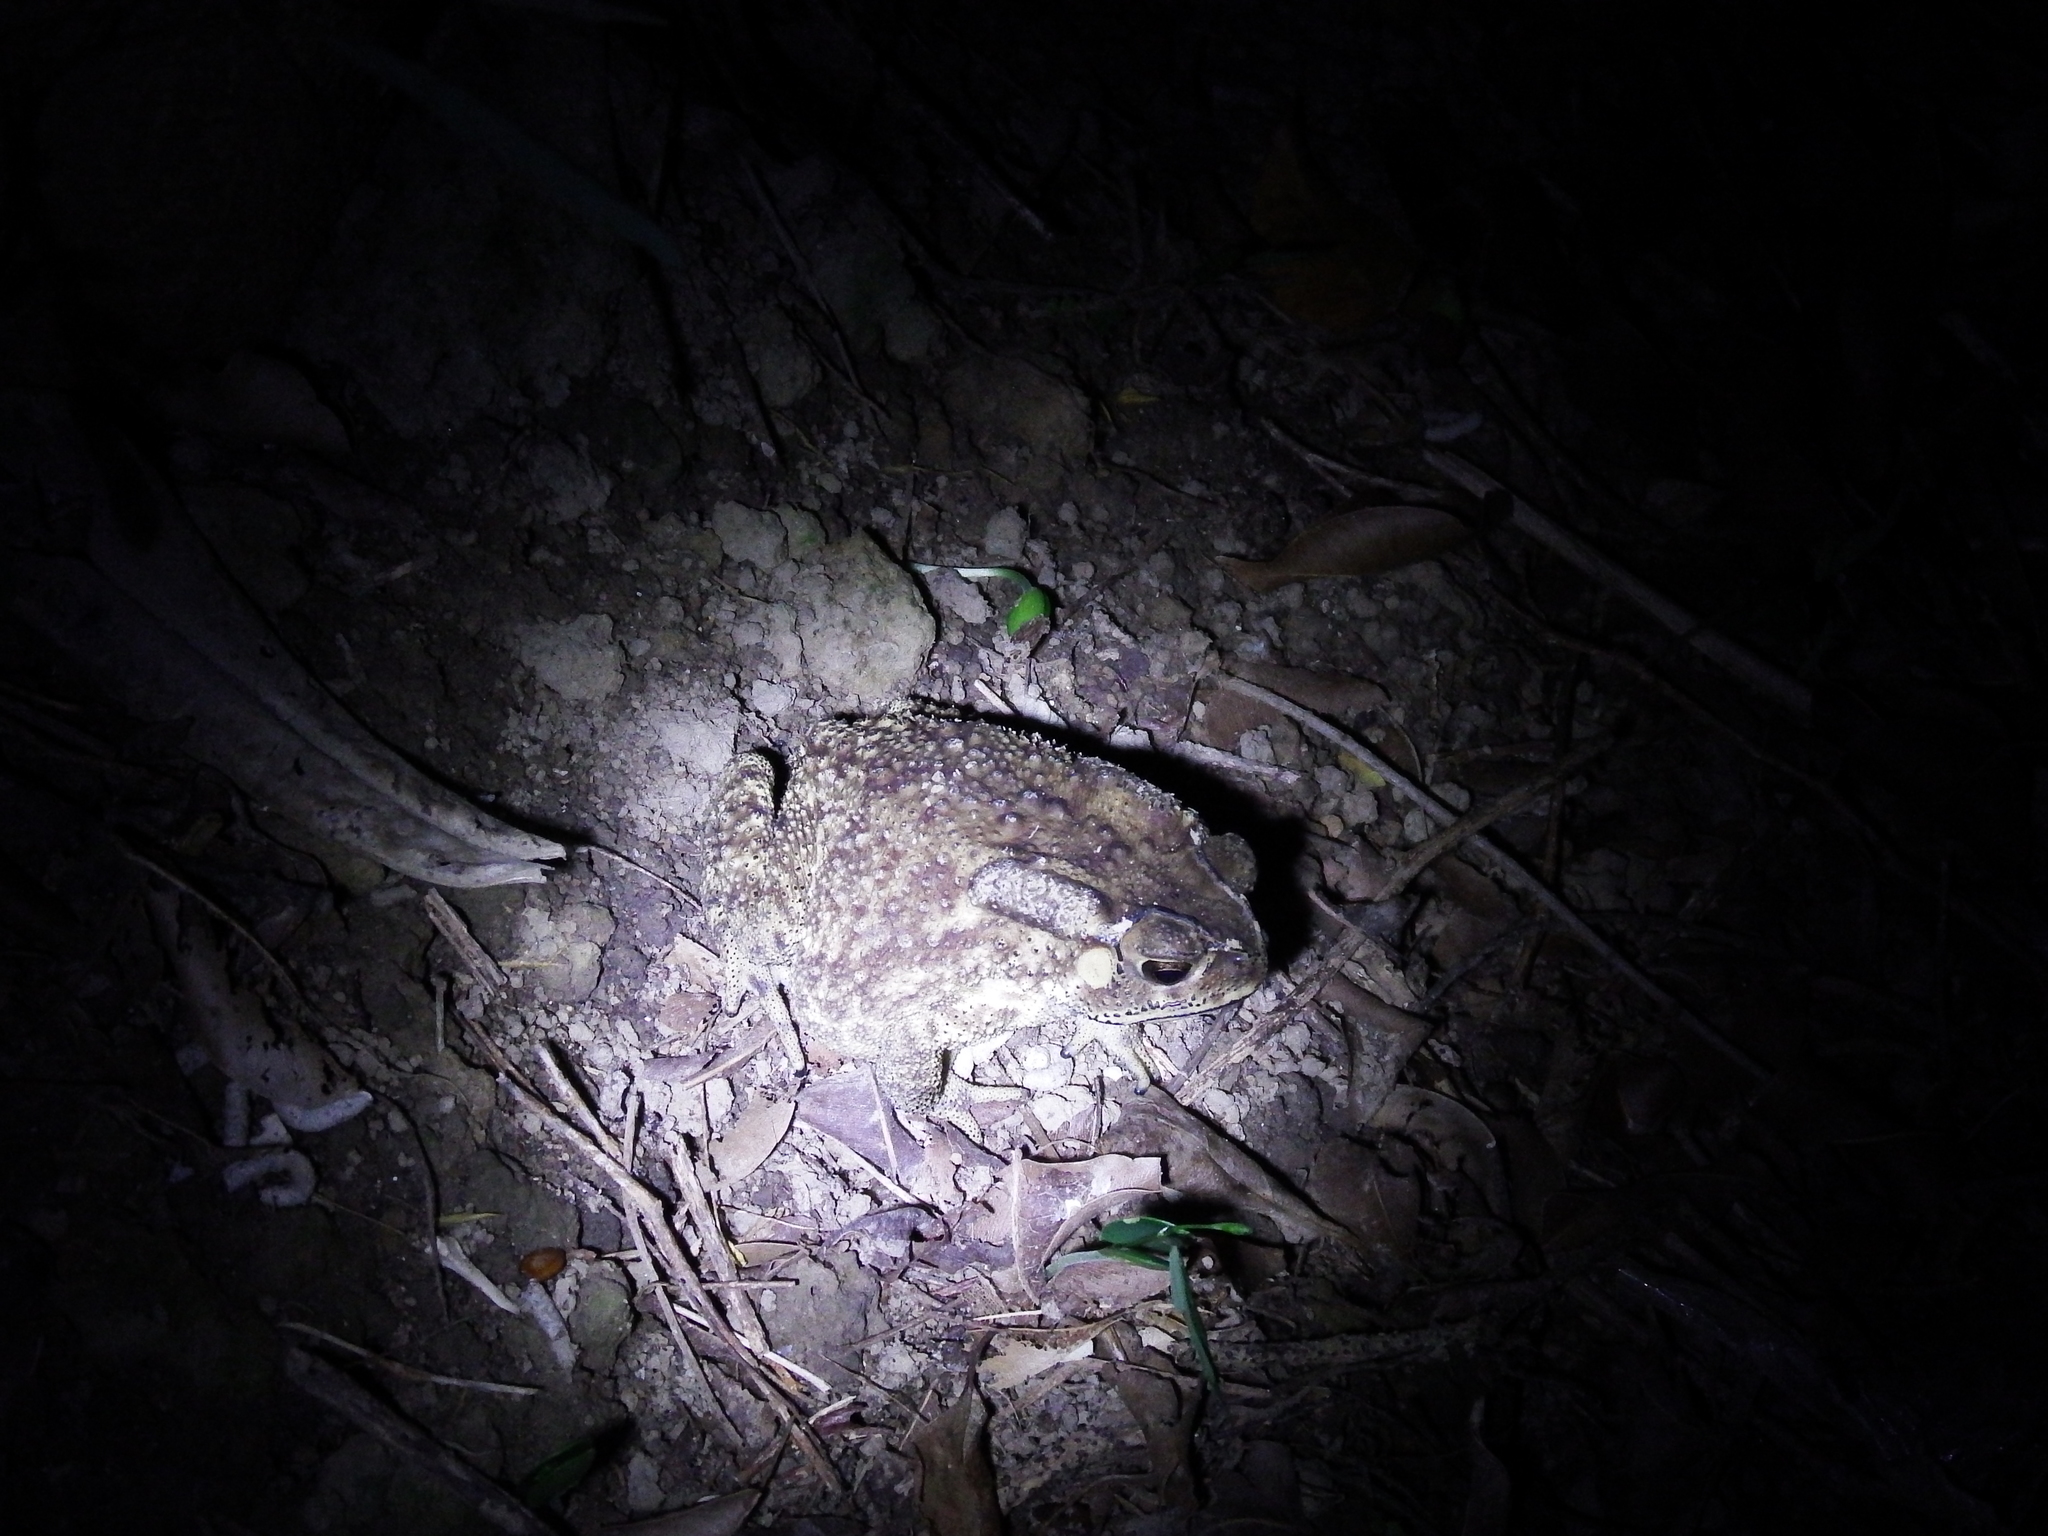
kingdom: Animalia
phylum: Chordata
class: Amphibia
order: Anura
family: Bufonidae
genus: Duttaphrynus
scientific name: Duttaphrynus melanostictus
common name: Common sunda toad
